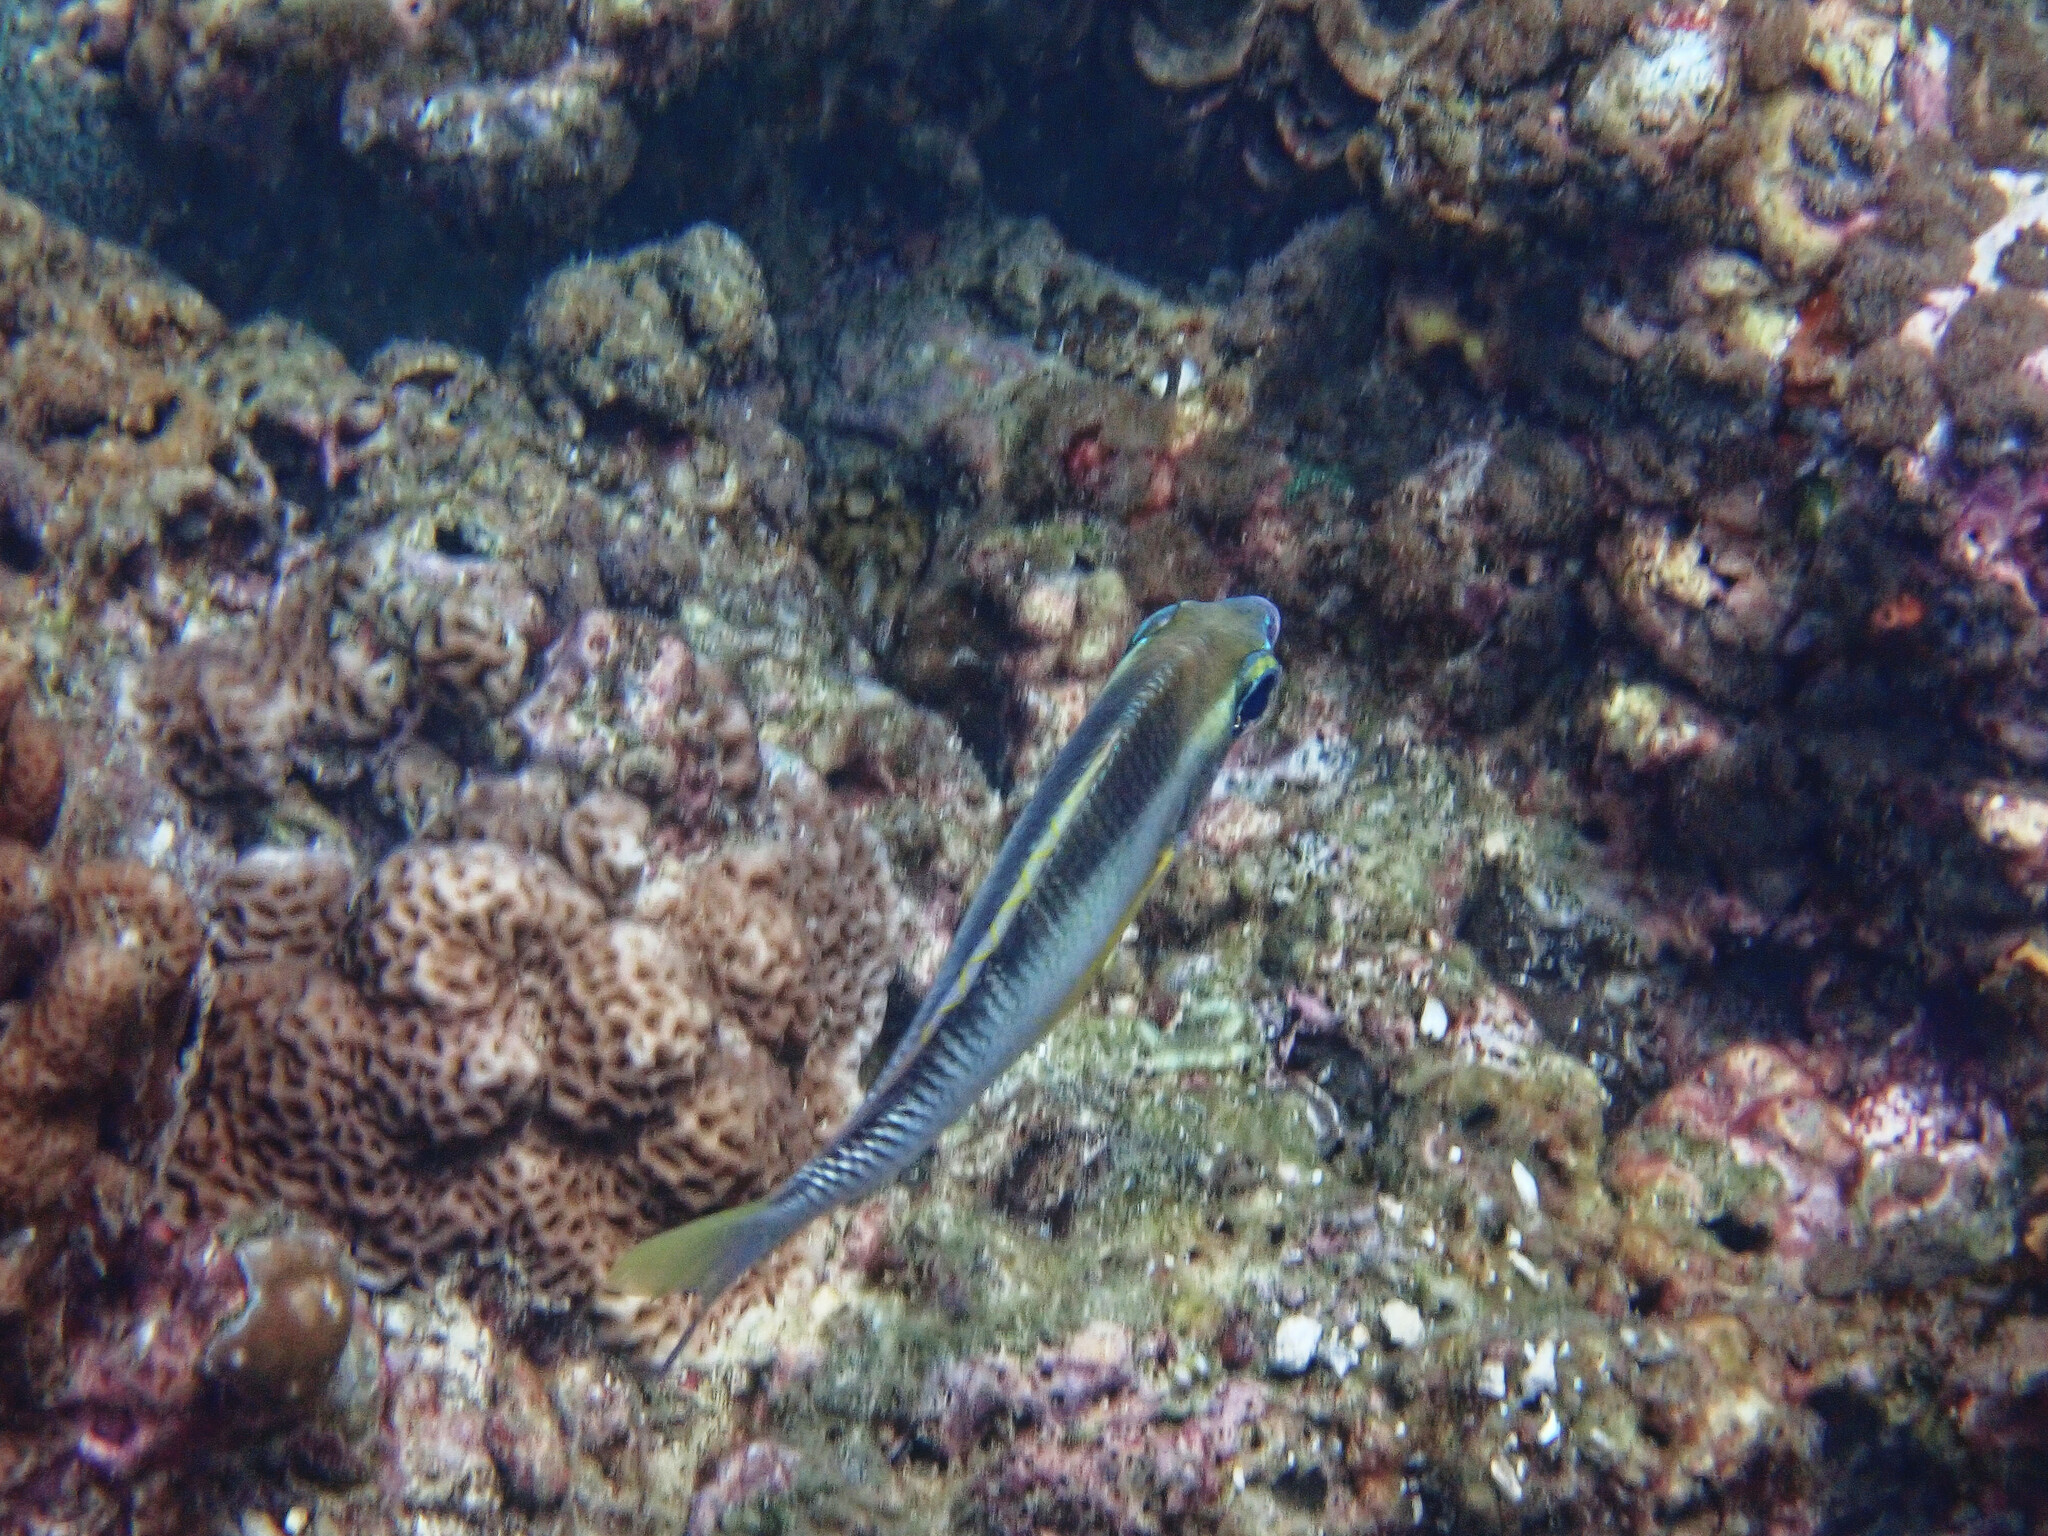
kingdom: Animalia
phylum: Chordata
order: Perciformes
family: Nemipteridae
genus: Scolopsis
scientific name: Scolopsis margaritifera
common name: Pearly monocle bream
